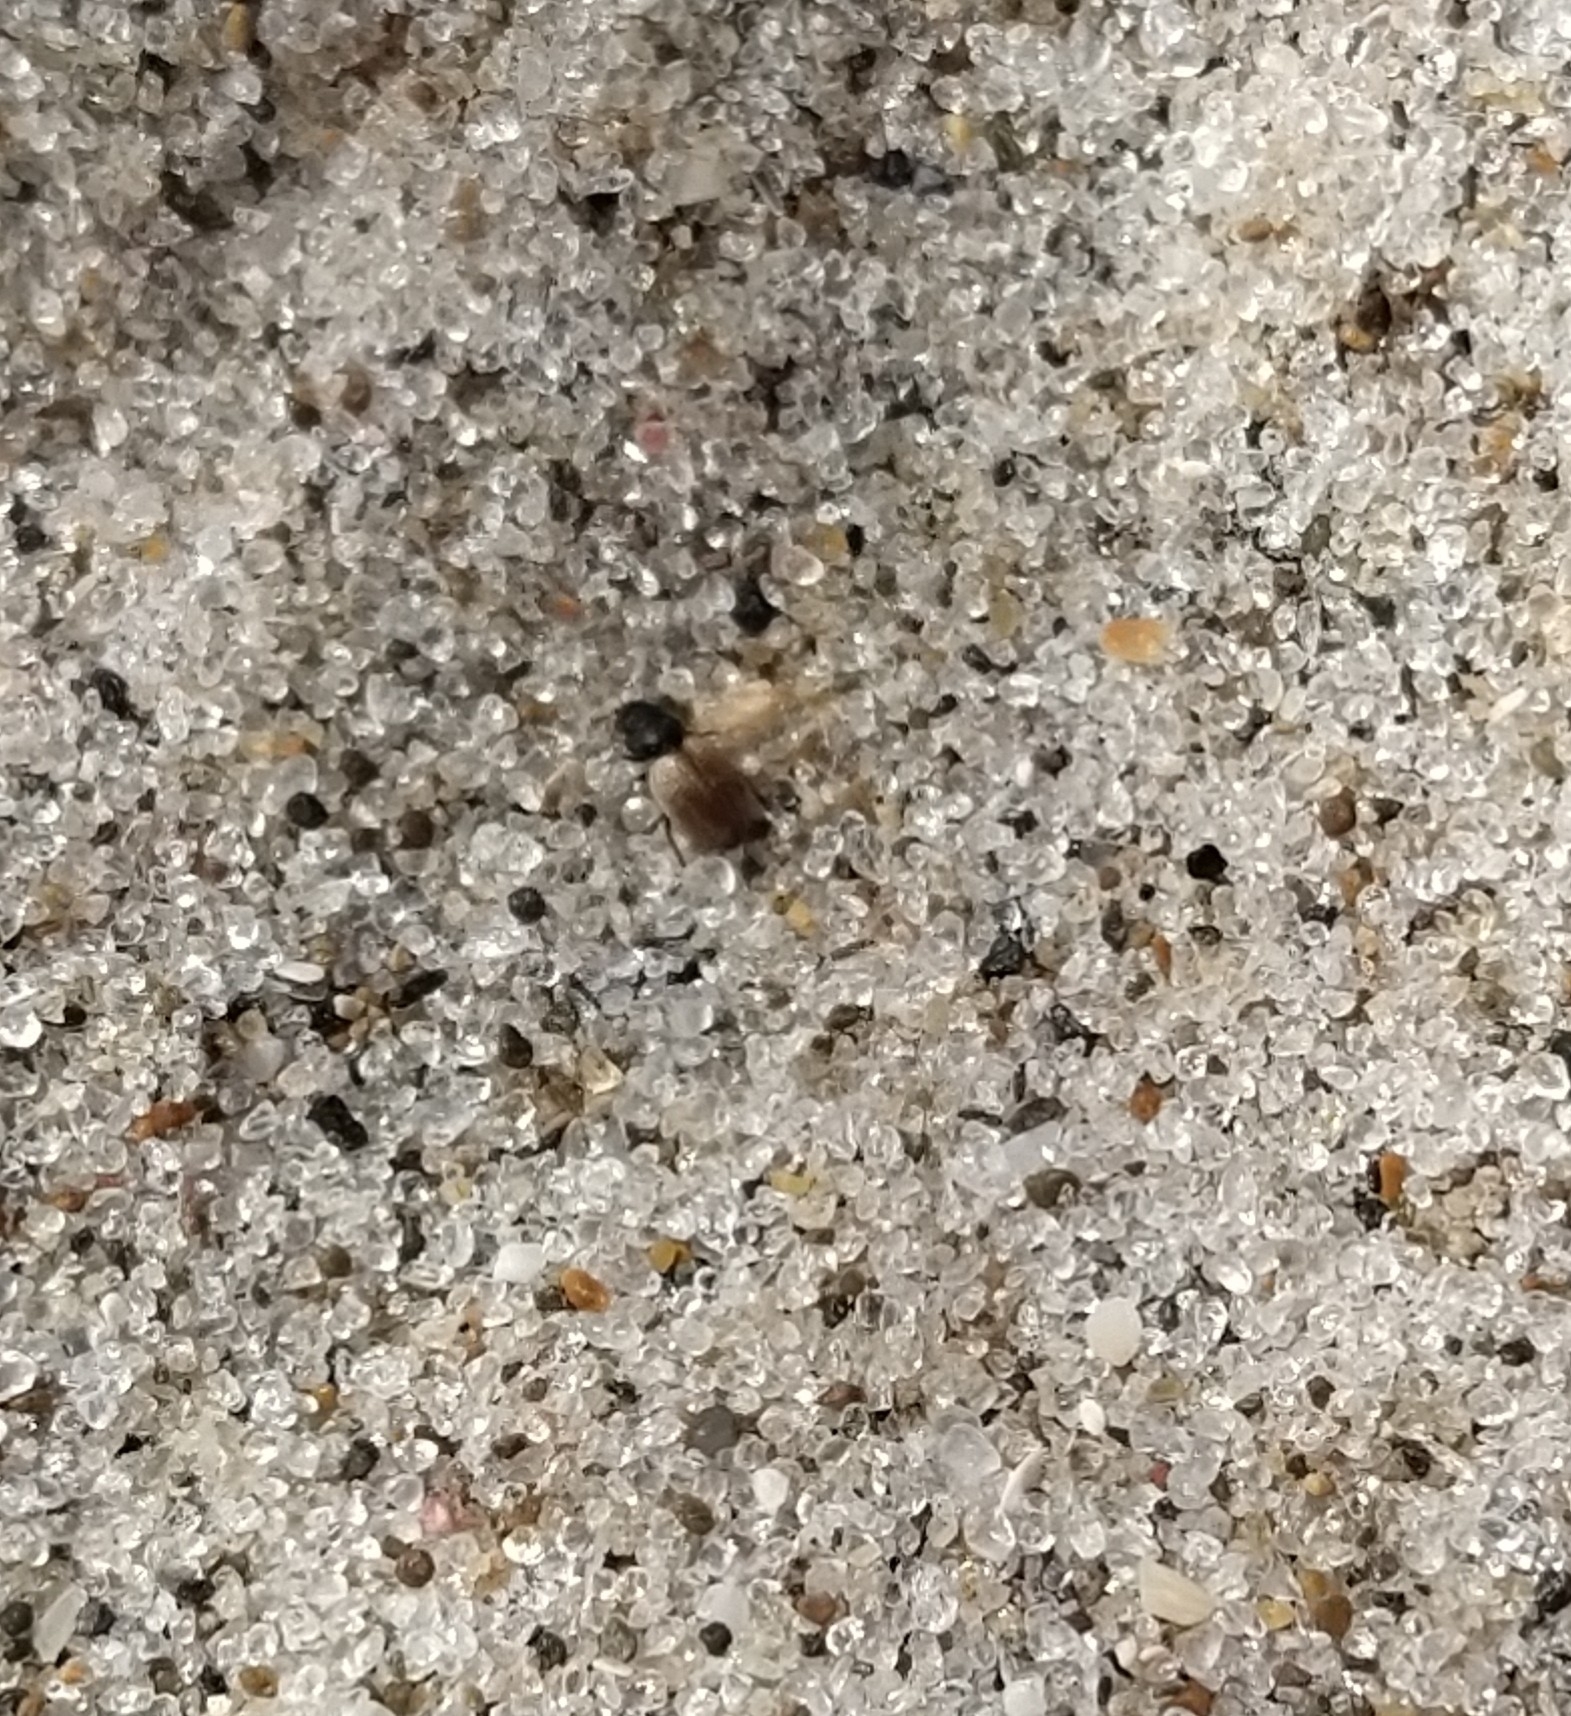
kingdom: Animalia
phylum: Arthropoda
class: Insecta
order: Coleoptera
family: Phycosecidae
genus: Phycosecis
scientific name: Phycosecis
